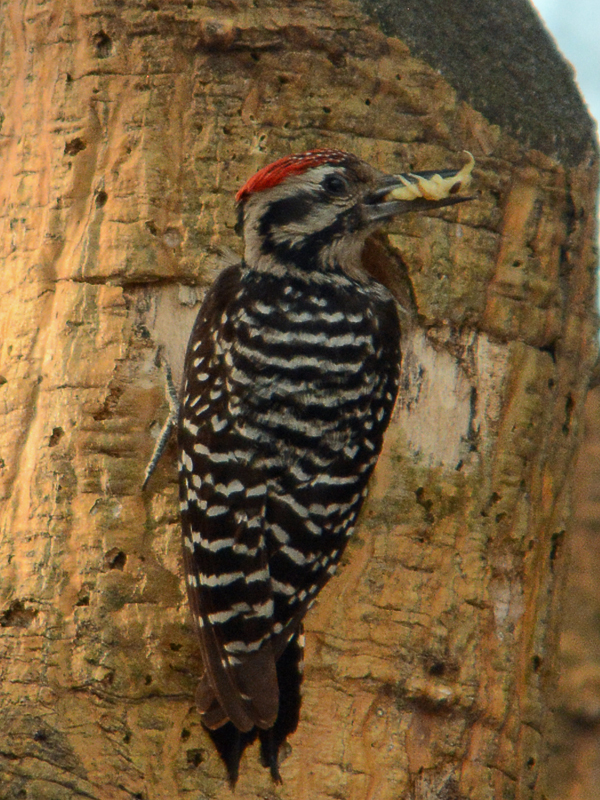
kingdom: Animalia
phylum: Chordata
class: Aves
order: Piciformes
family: Picidae
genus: Dryobates
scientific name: Dryobates scalaris
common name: Ladder-backed woodpecker
